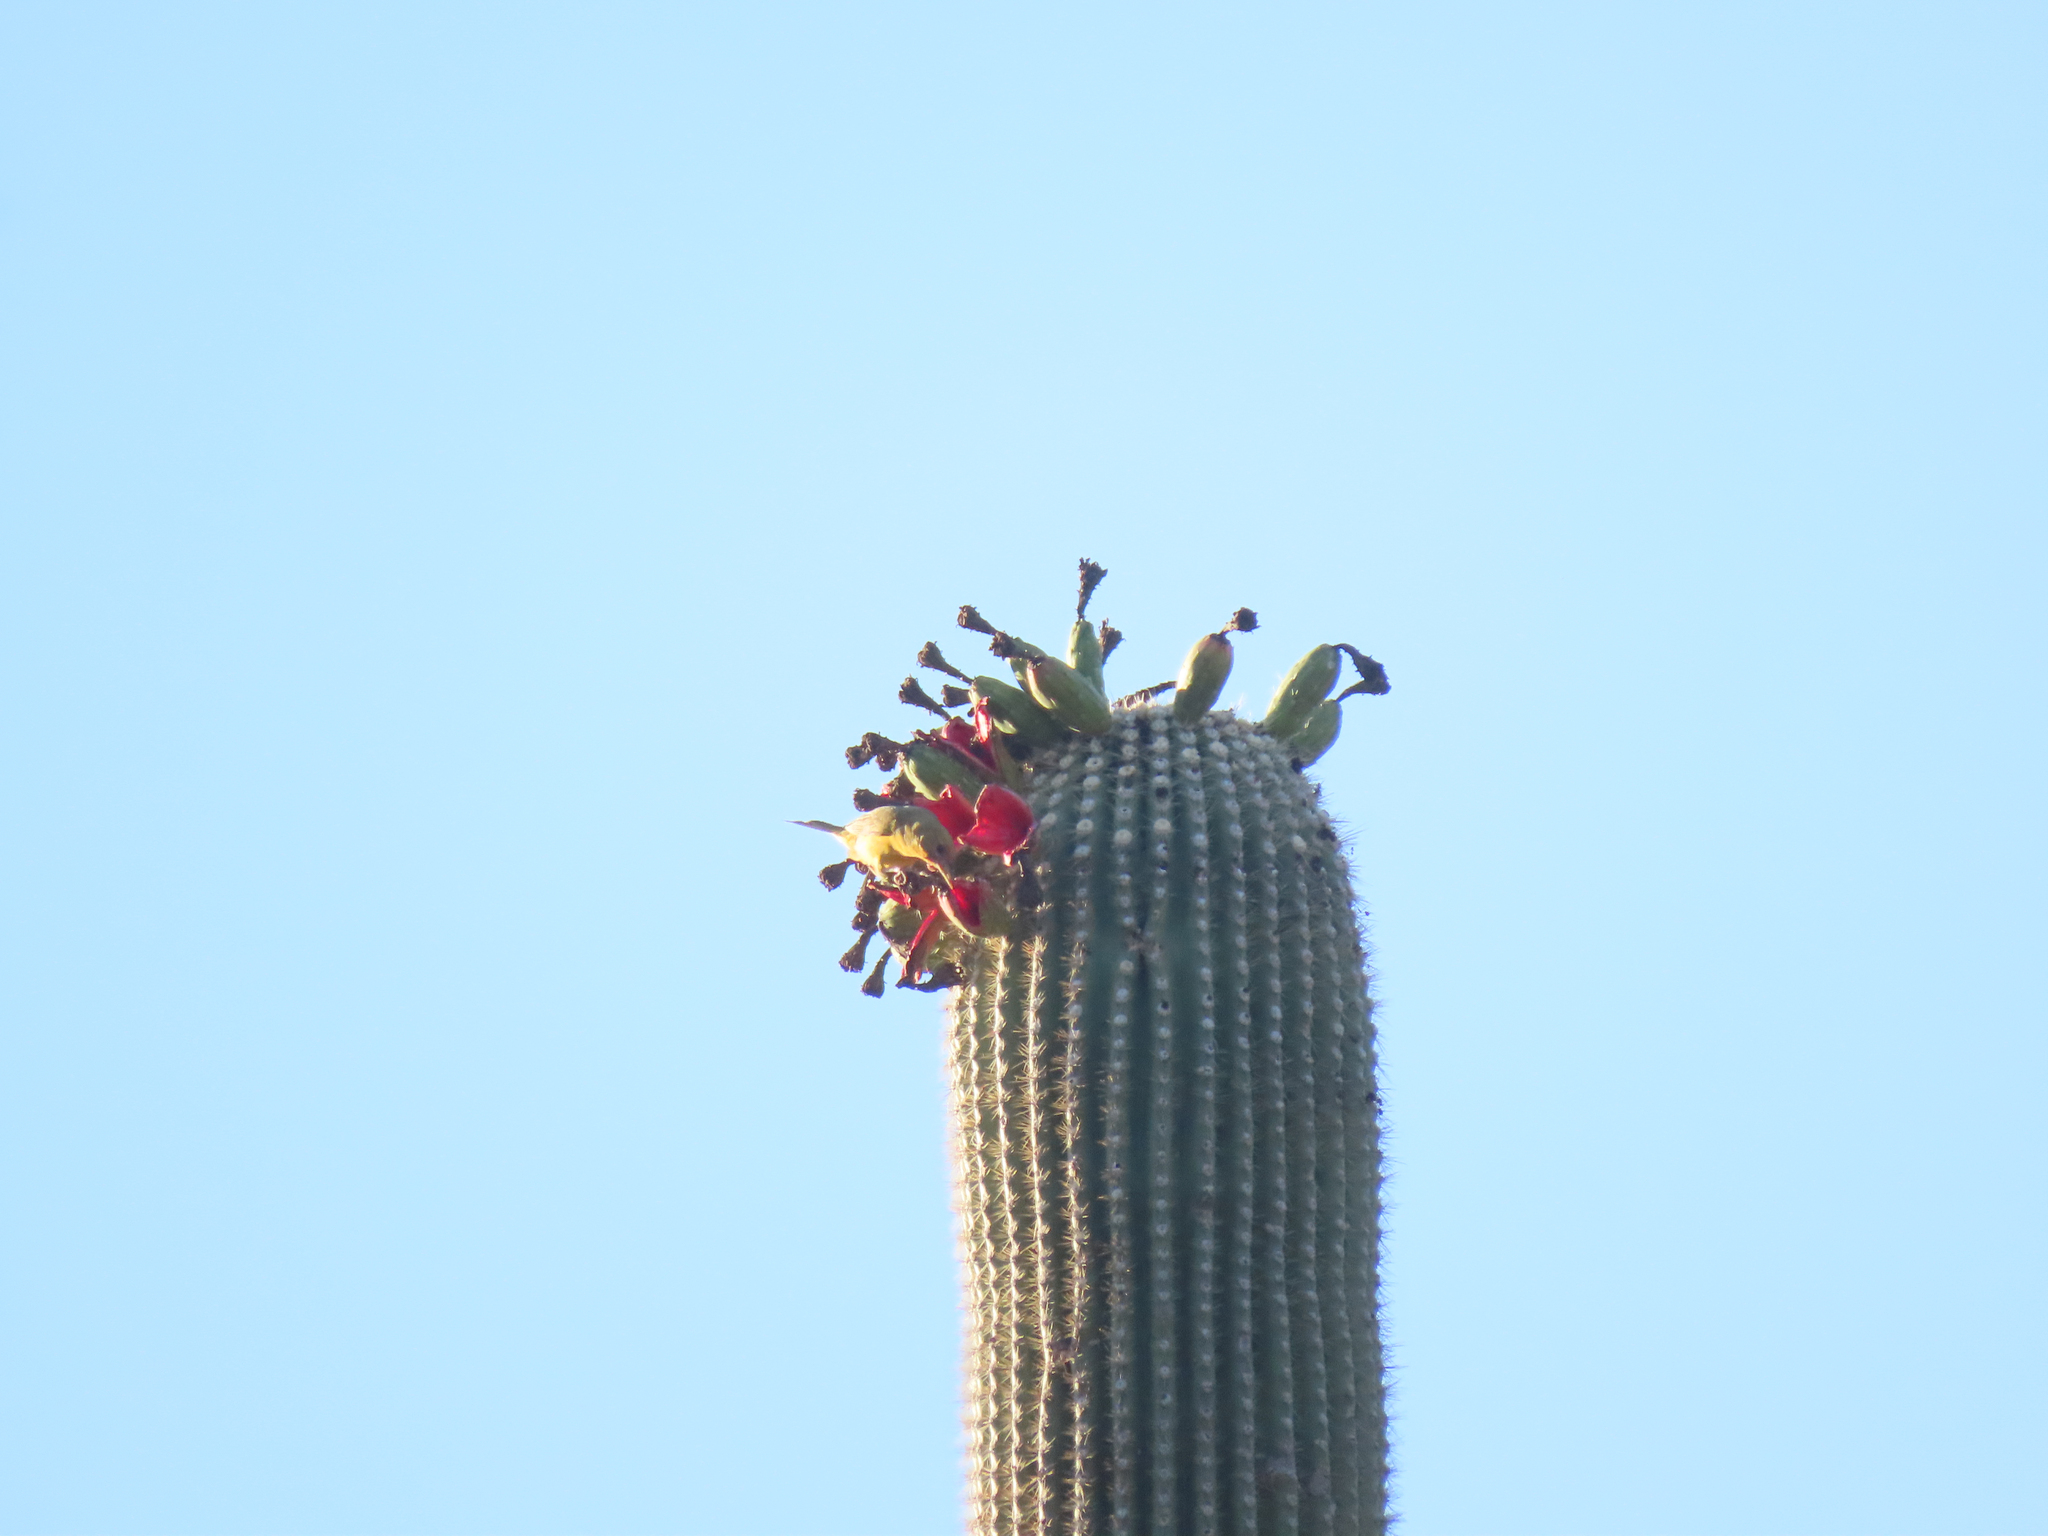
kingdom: Plantae
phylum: Tracheophyta
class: Magnoliopsida
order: Caryophyllales
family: Cactaceae
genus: Carnegiea
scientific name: Carnegiea gigantea
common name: Saguaro
